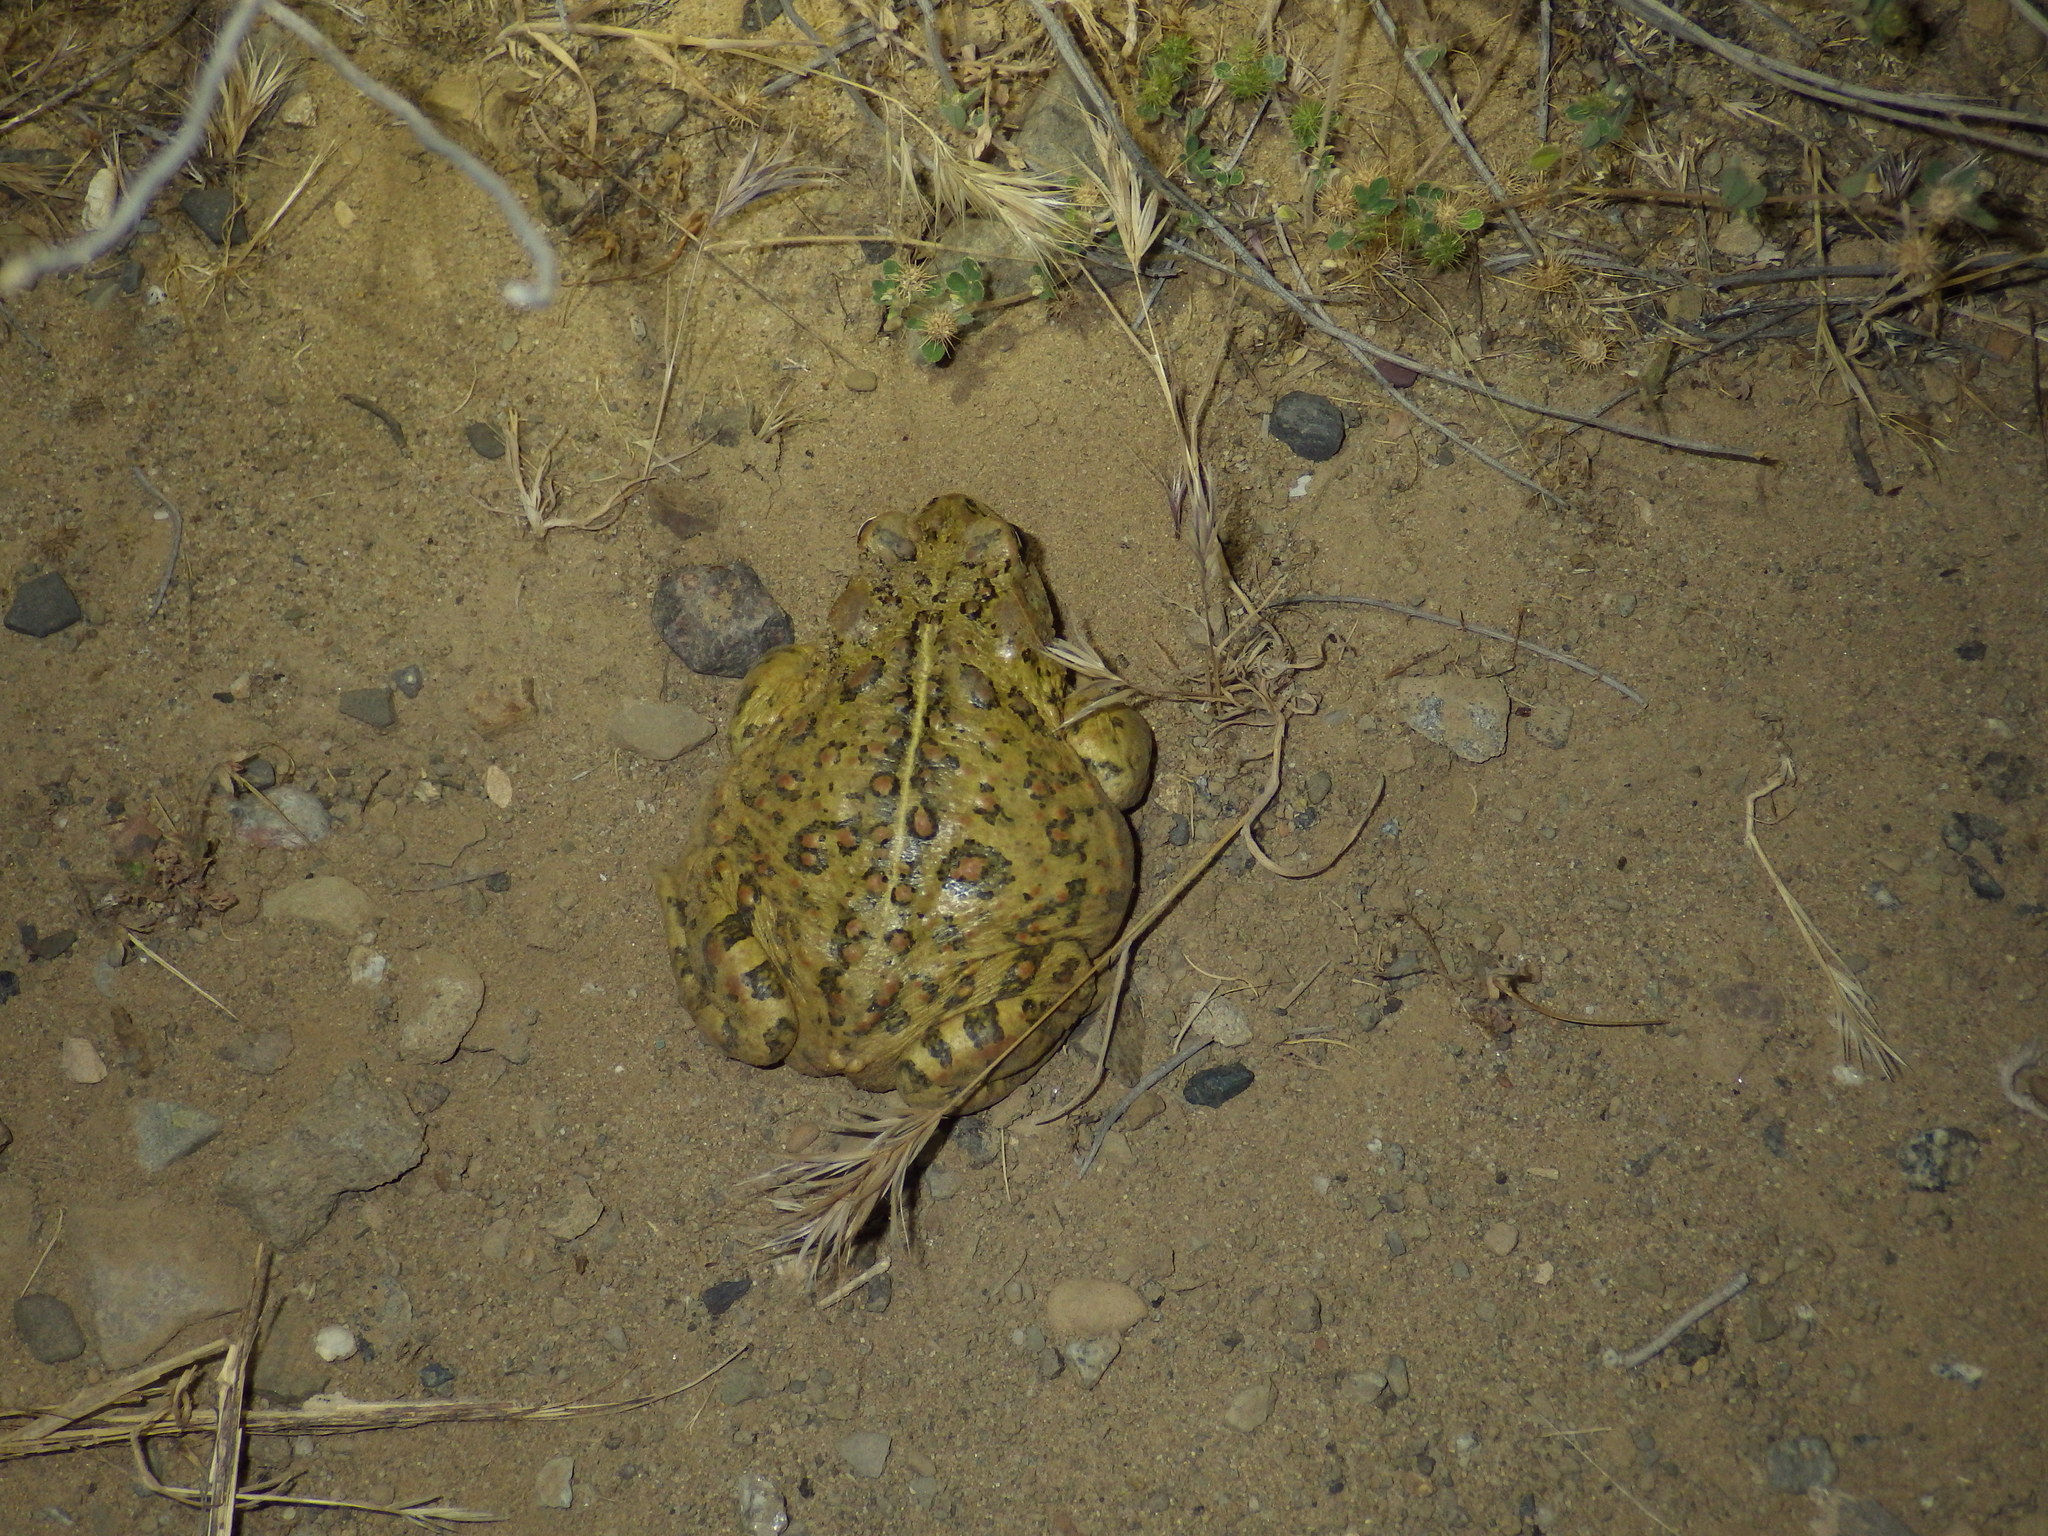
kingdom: Animalia
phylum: Chordata
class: Amphibia
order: Anura
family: Bufonidae
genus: Anaxyrus
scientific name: Anaxyrus boreas
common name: Western toad
